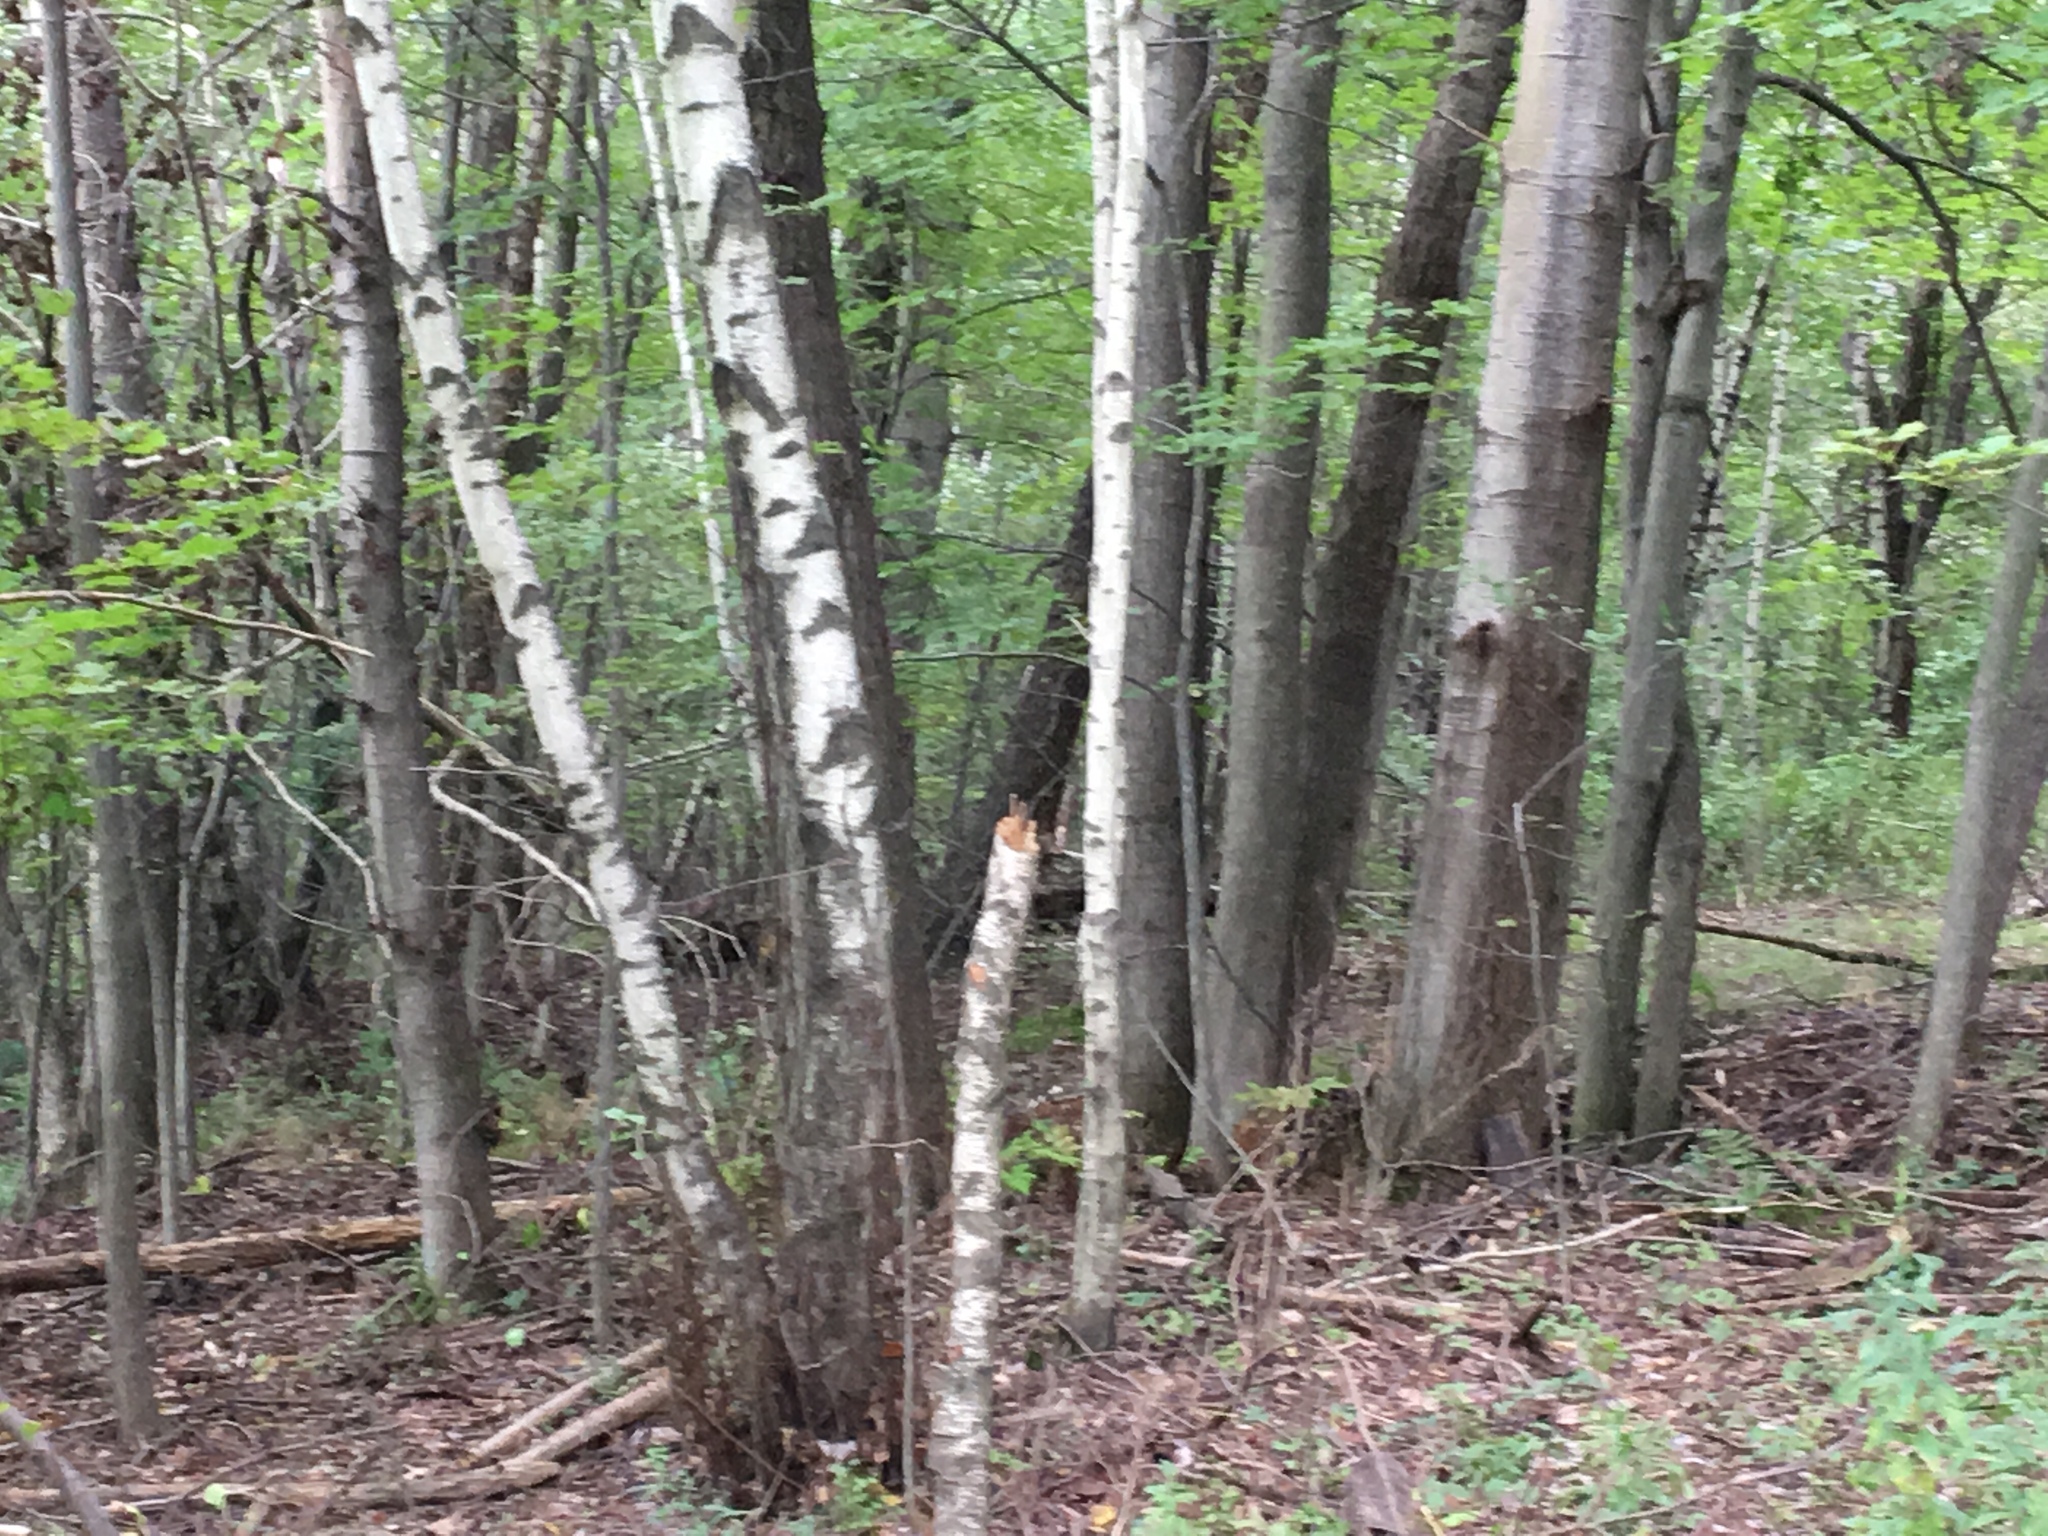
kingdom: Plantae
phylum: Tracheophyta
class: Magnoliopsida
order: Fagales
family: Betulaceae
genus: Betula
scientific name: Betula populifolia
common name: Fire birch
